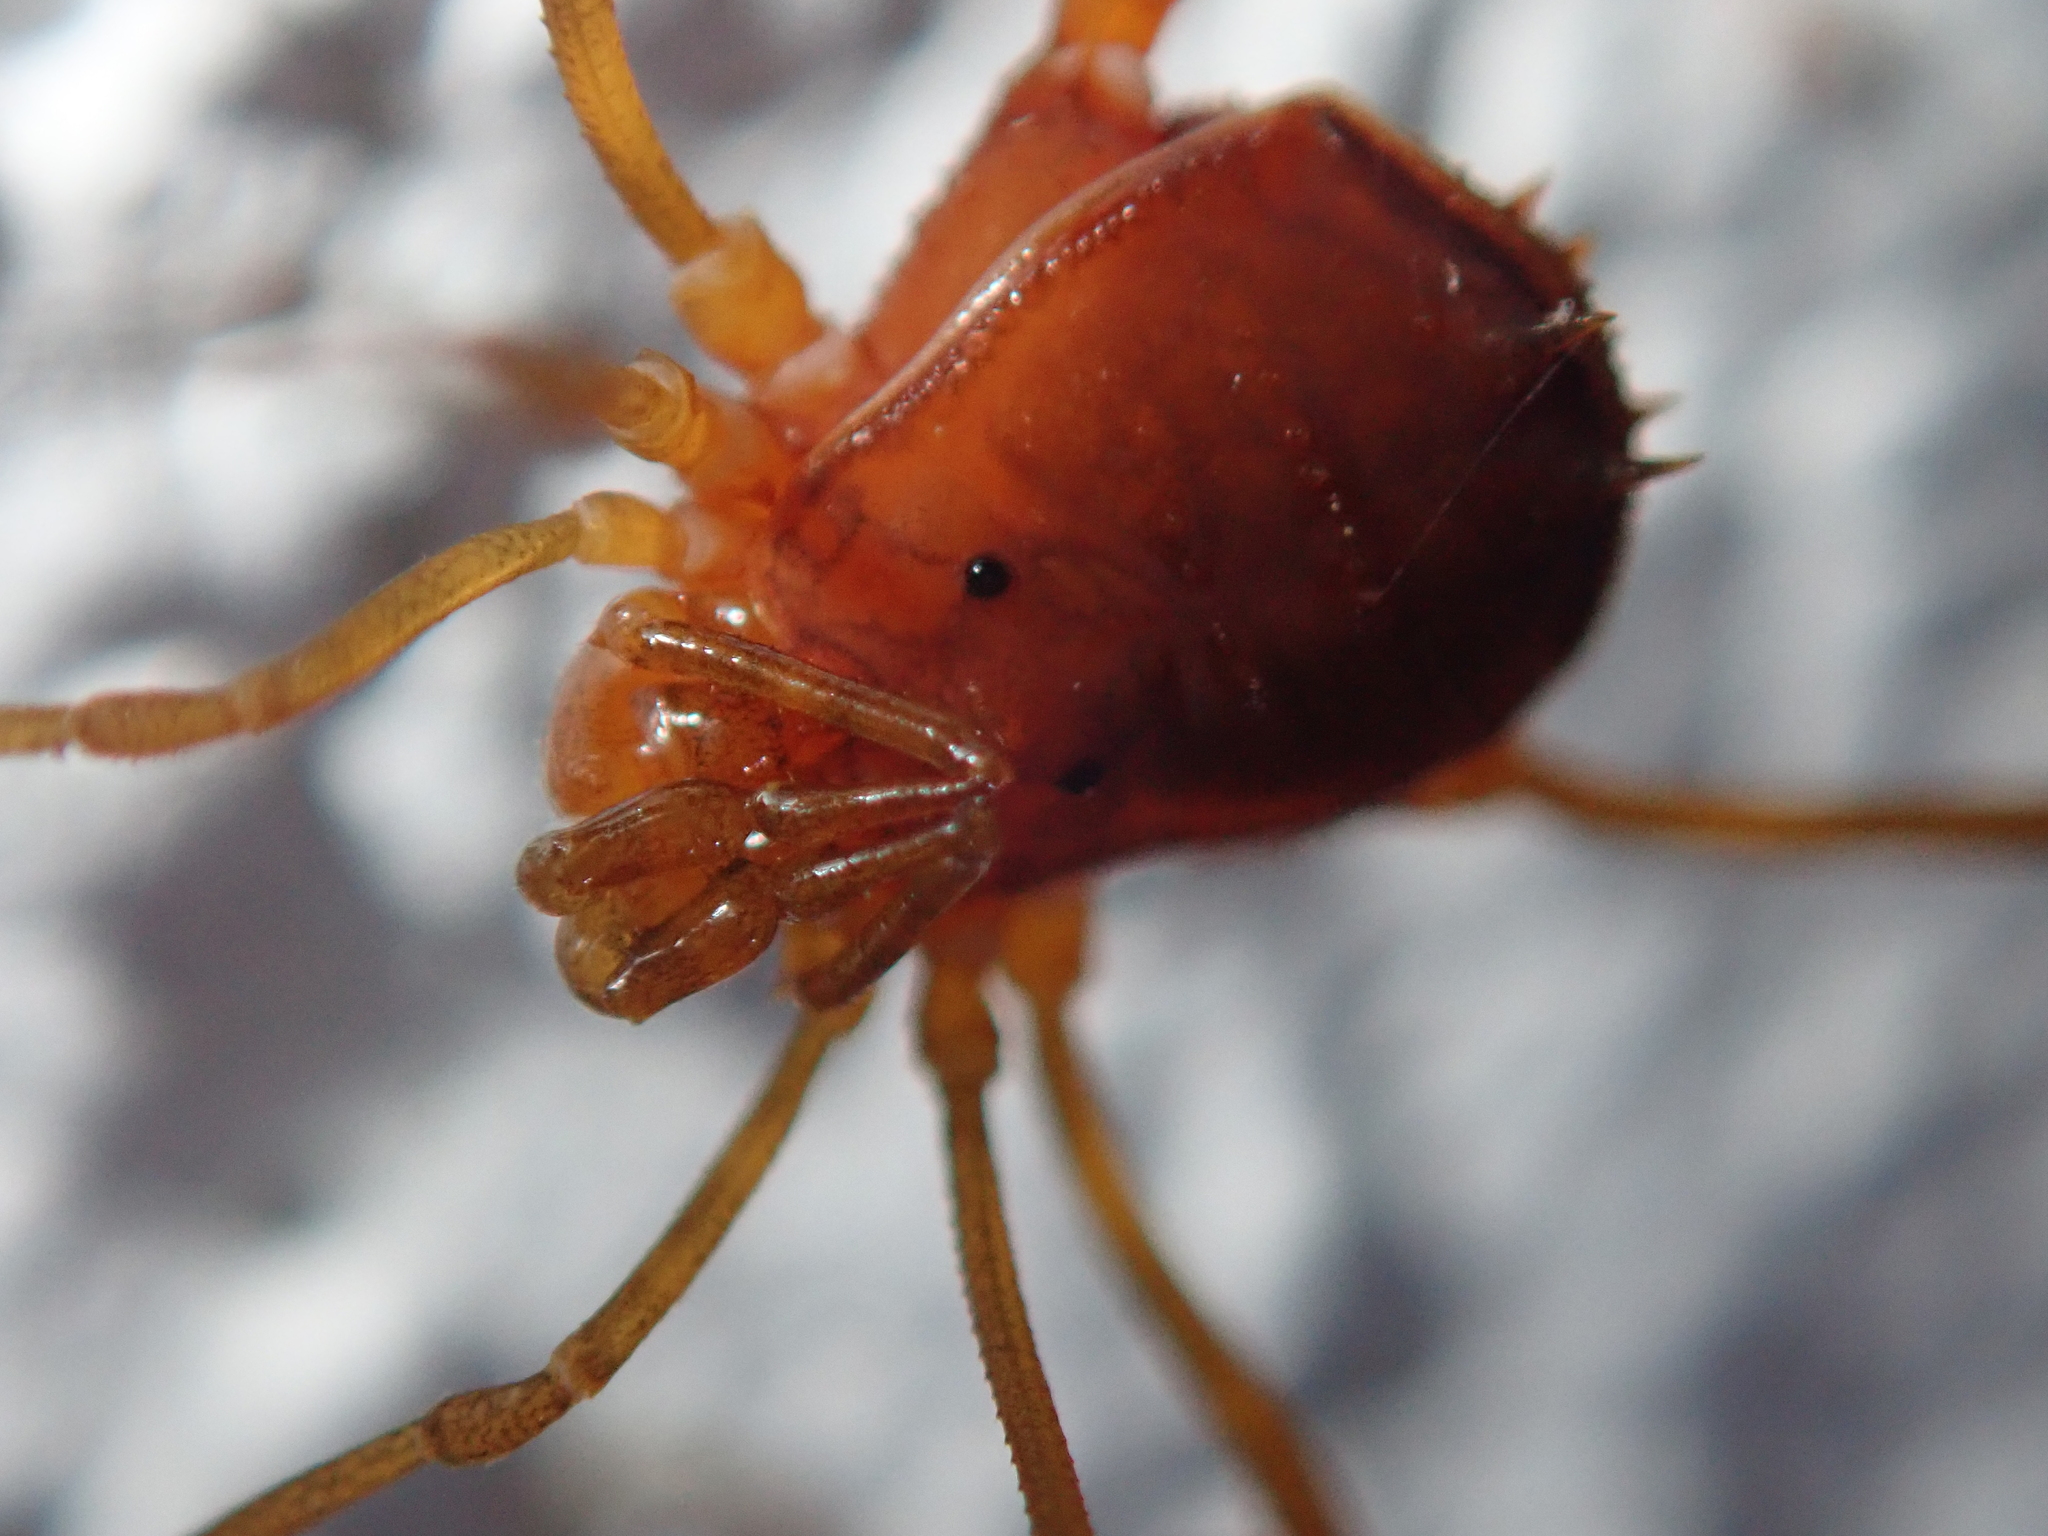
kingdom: Animalia
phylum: Arthropoda
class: Arachnida
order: Opiliones
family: Stygnidae
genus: Stygnus
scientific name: Stygnus polyacanthus
